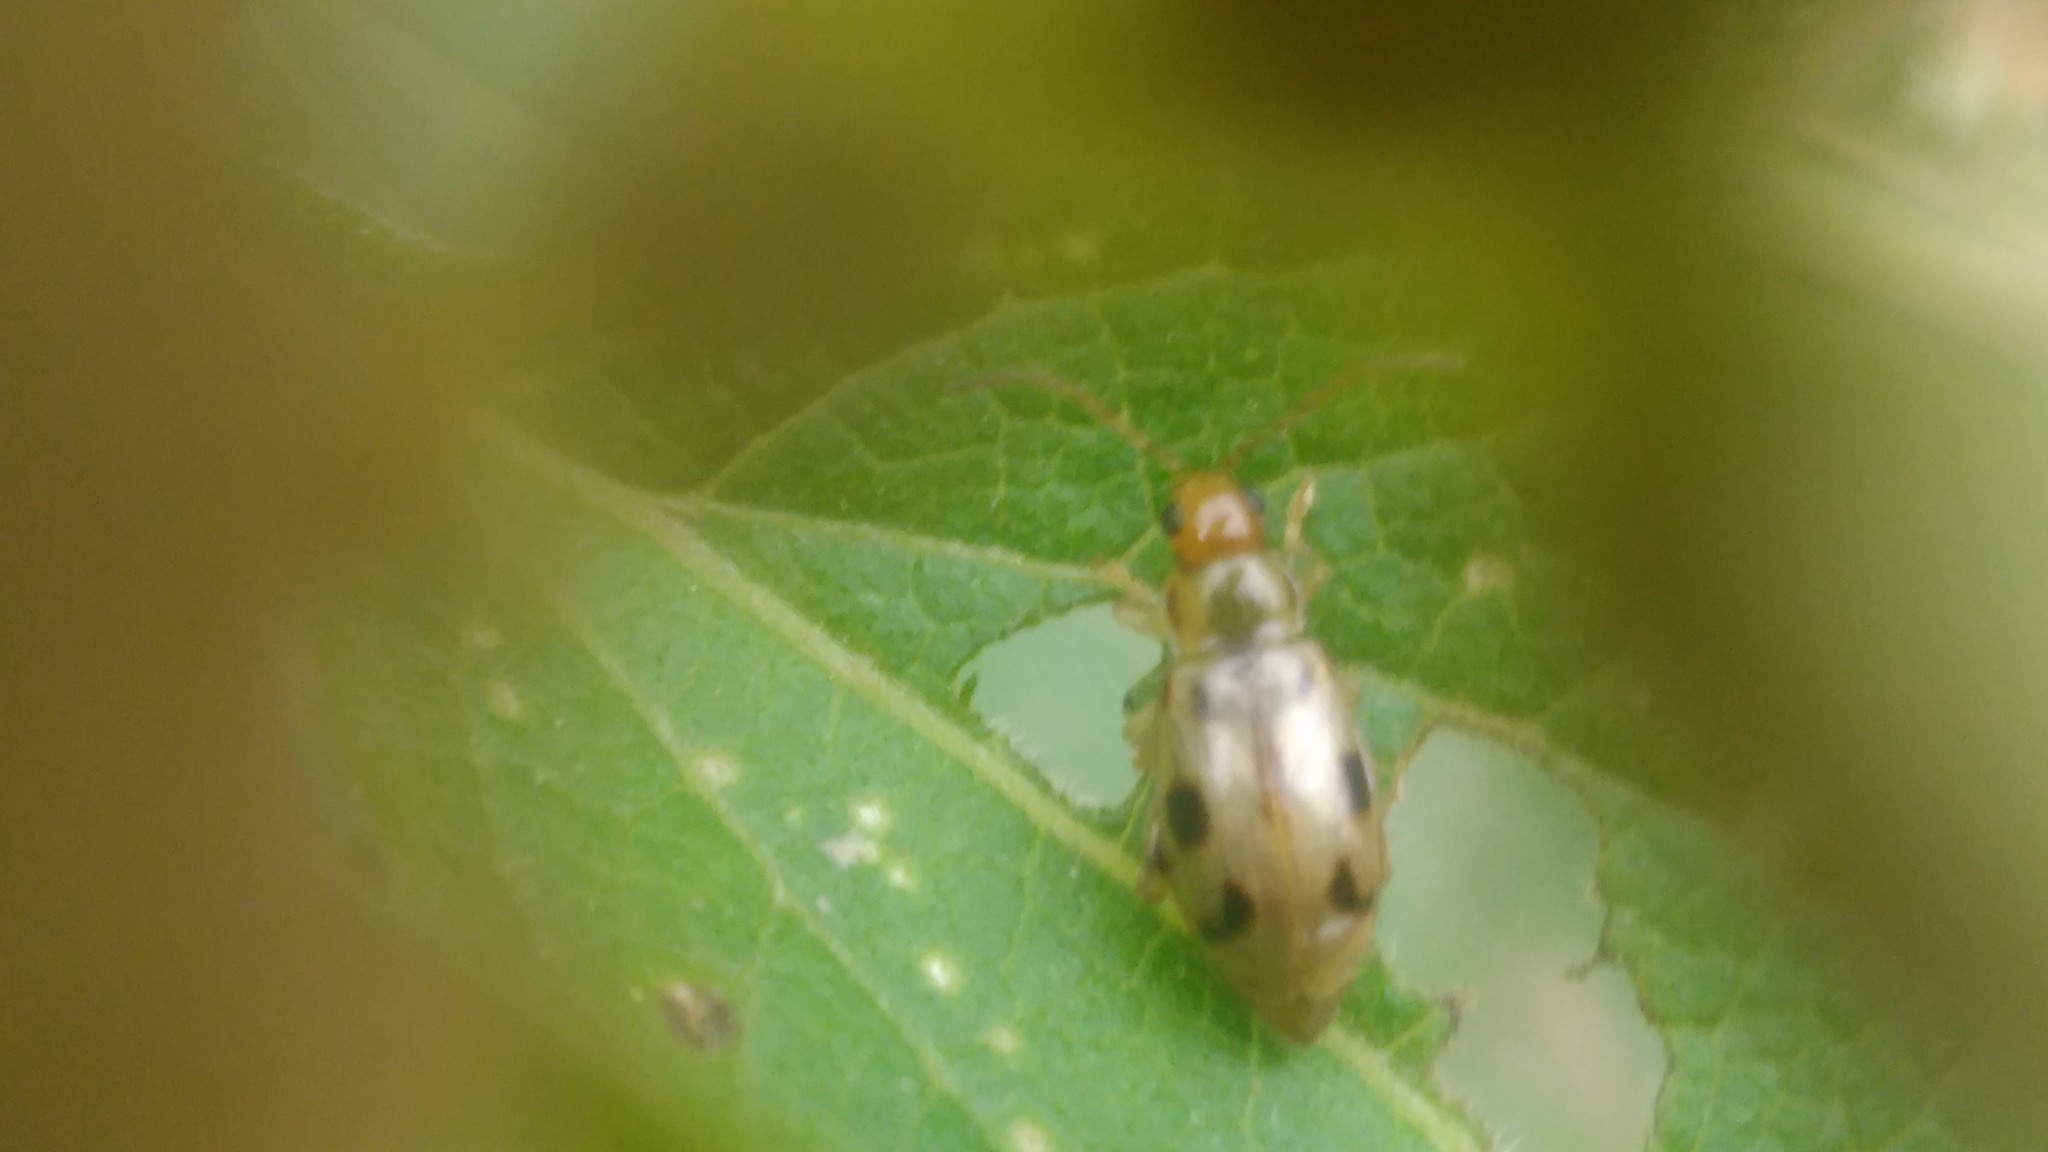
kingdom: Animalia
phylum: Arthropoda
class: Insecta
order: Coleoptera
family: Chrysomelidae
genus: Systena
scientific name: Systena
